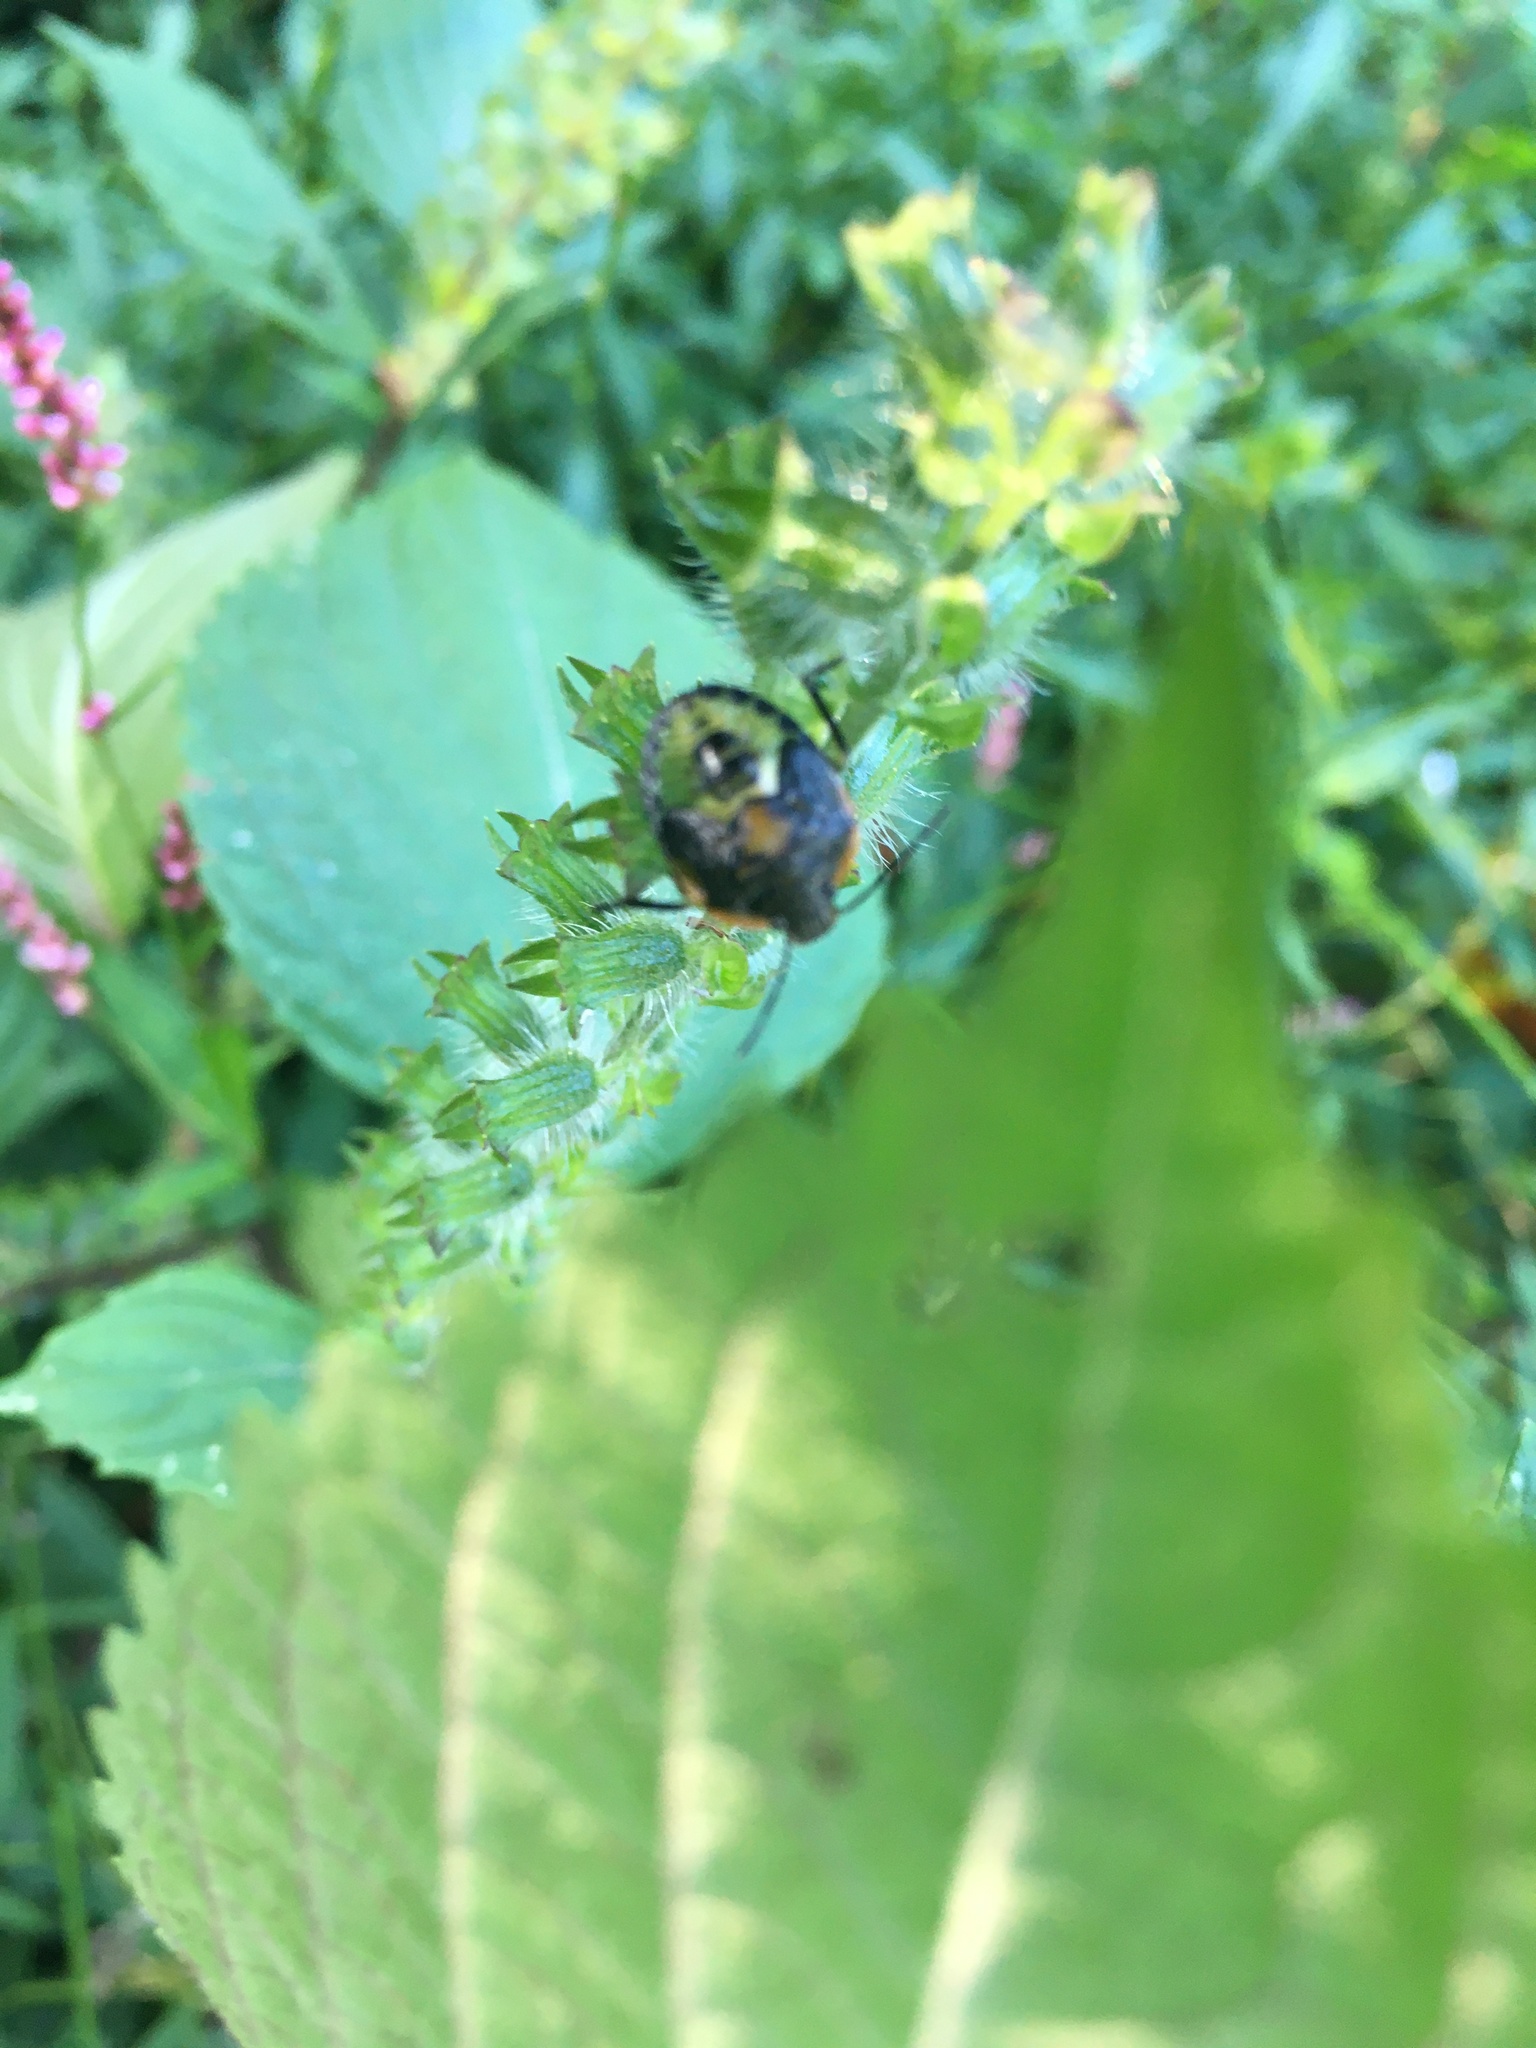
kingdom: Animalia
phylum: Arthropoda
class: Insecta
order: Hemiptera
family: Pentatomidae
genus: Chinavia
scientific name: Chinavia hilaris
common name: Green stink bug
